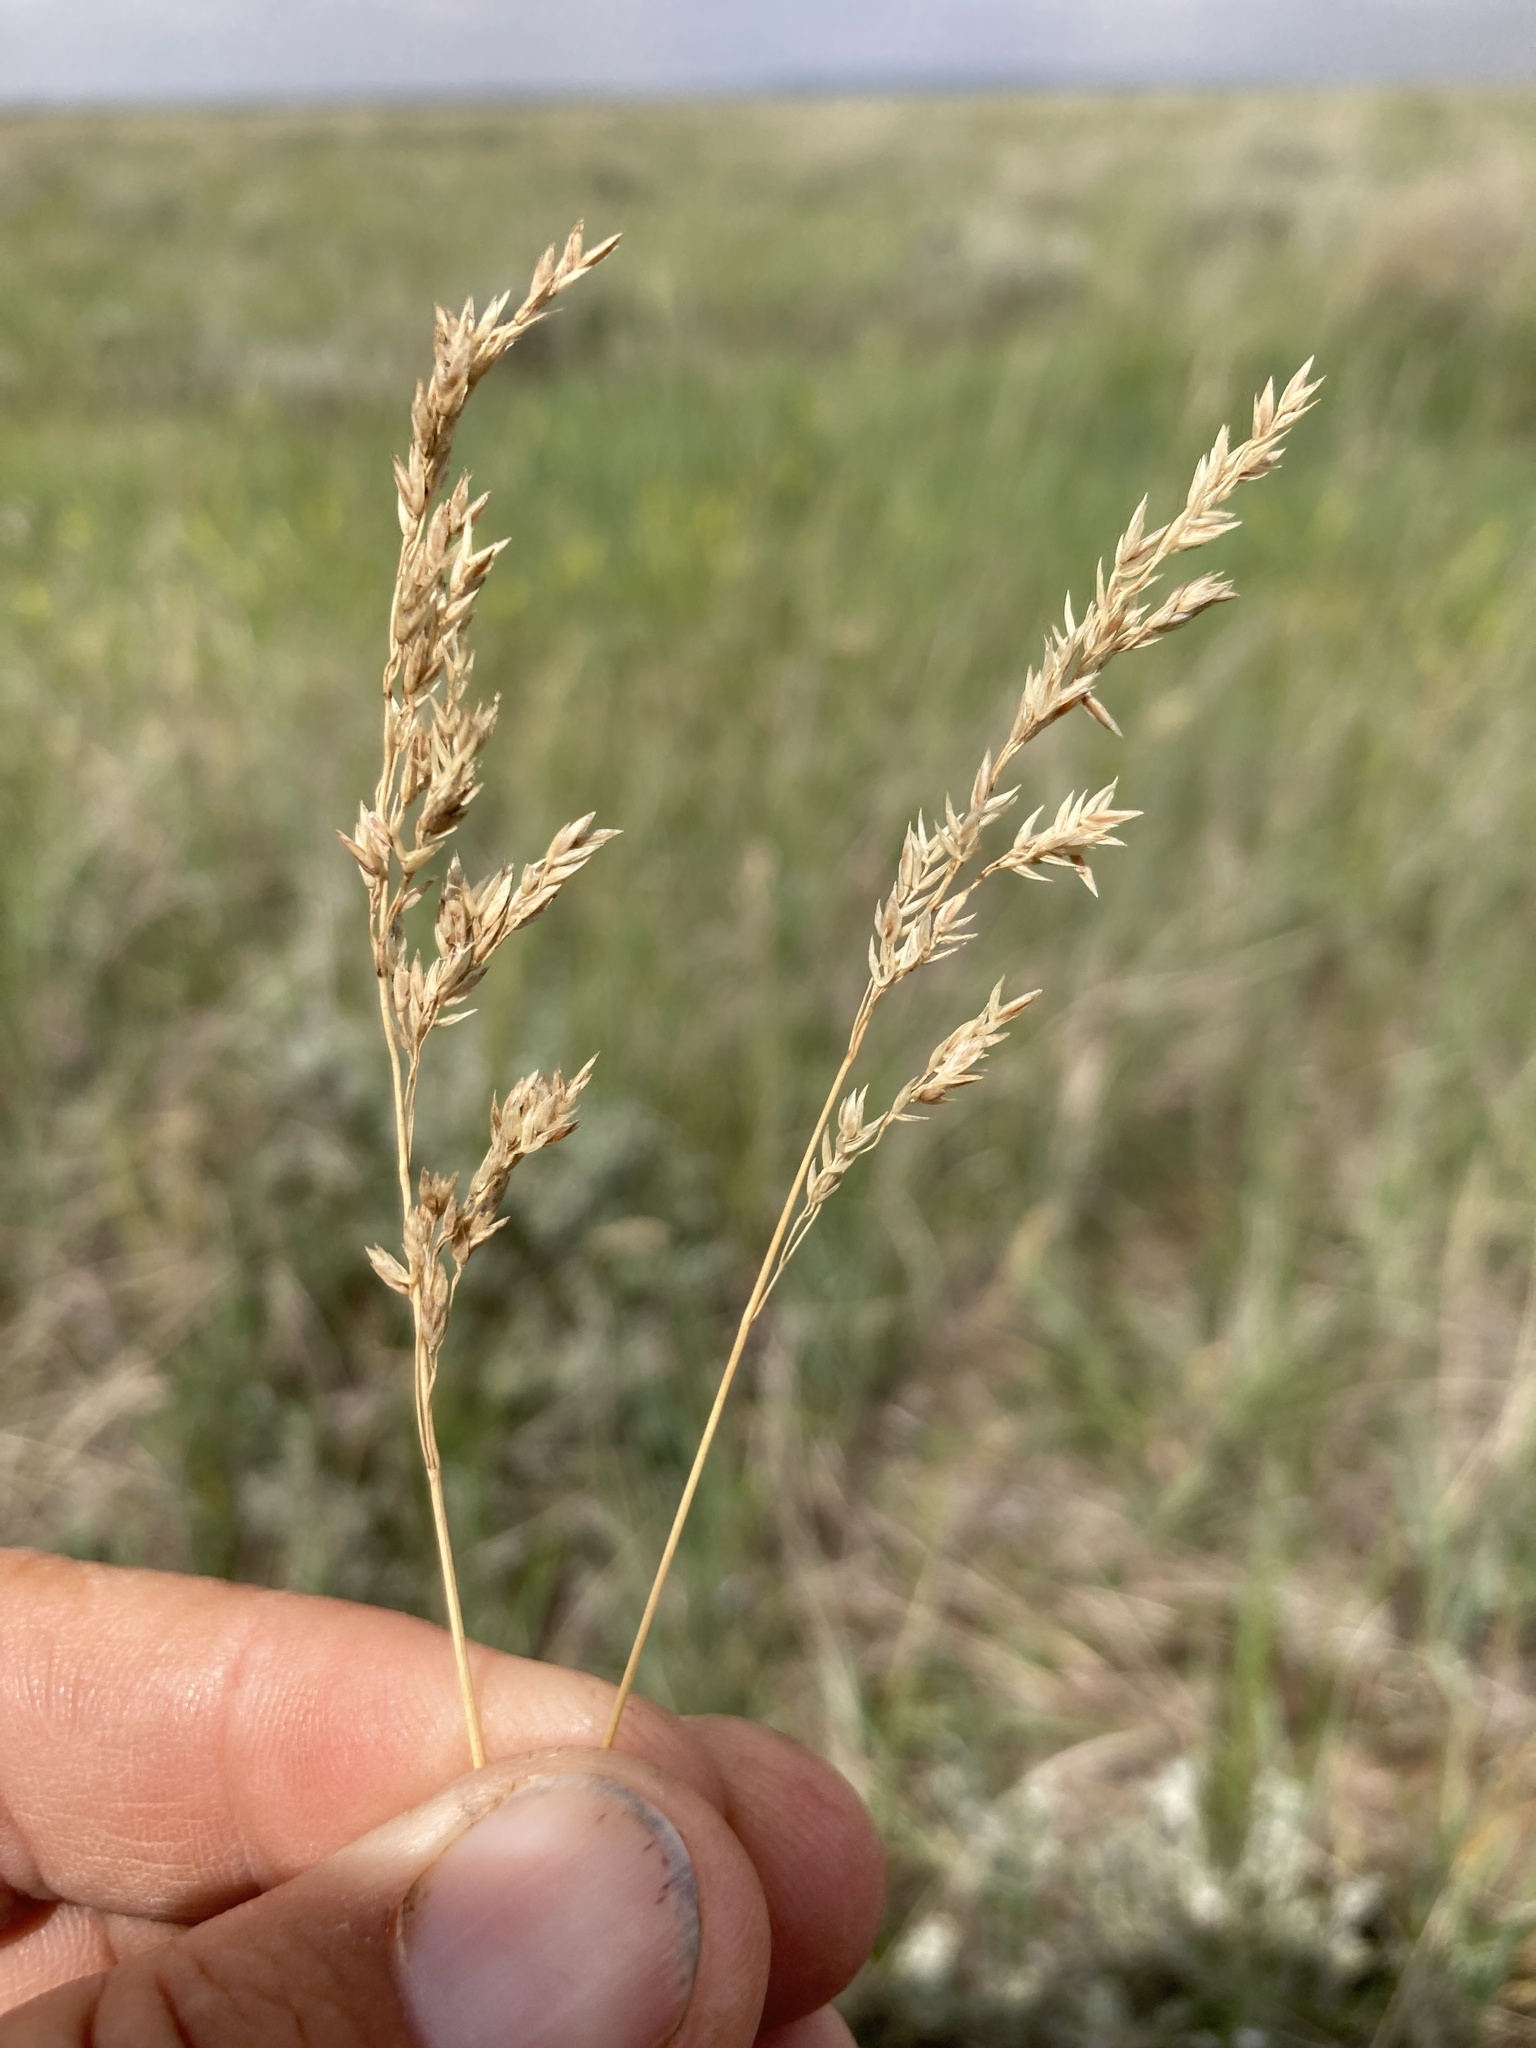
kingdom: Plantae
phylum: Tracheophyta
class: Liliopsida
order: Poales
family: Poaceae
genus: Poa
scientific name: Poa pratensis
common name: Kentucky bluegrass
